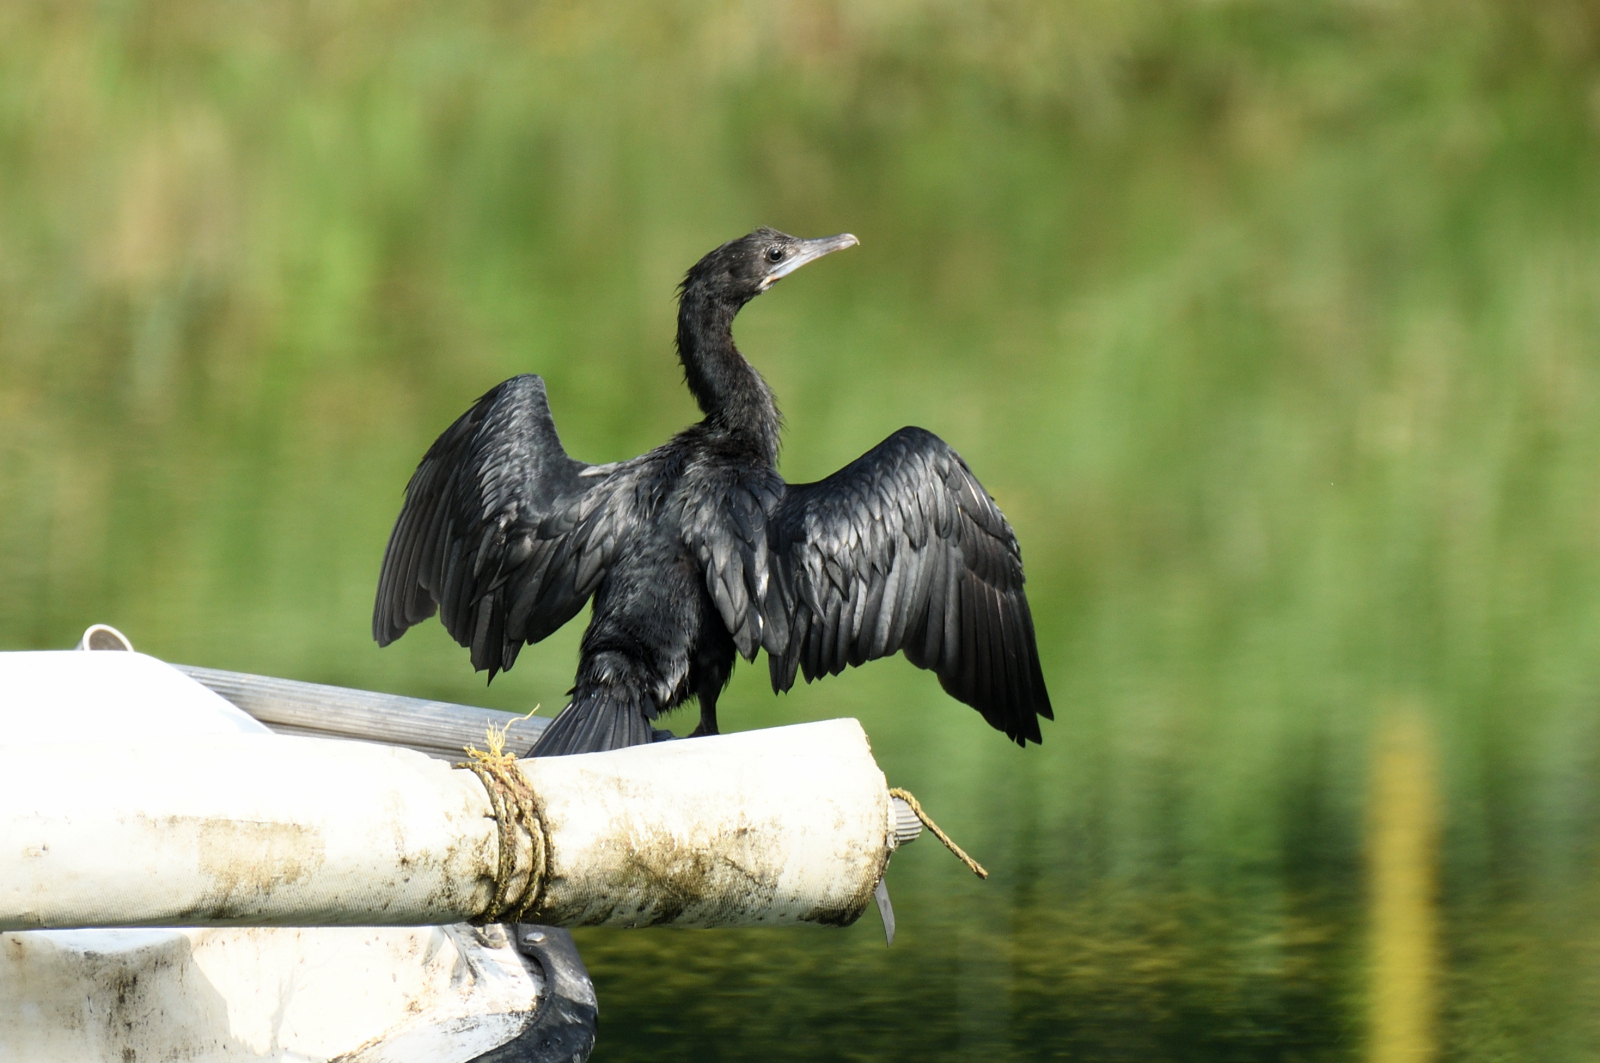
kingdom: Animalia
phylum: Chordata
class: Aves
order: Suliformes
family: Phalacrocoracidae
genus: Microcarbo
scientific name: Microcarbo niger
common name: Little cormorant
